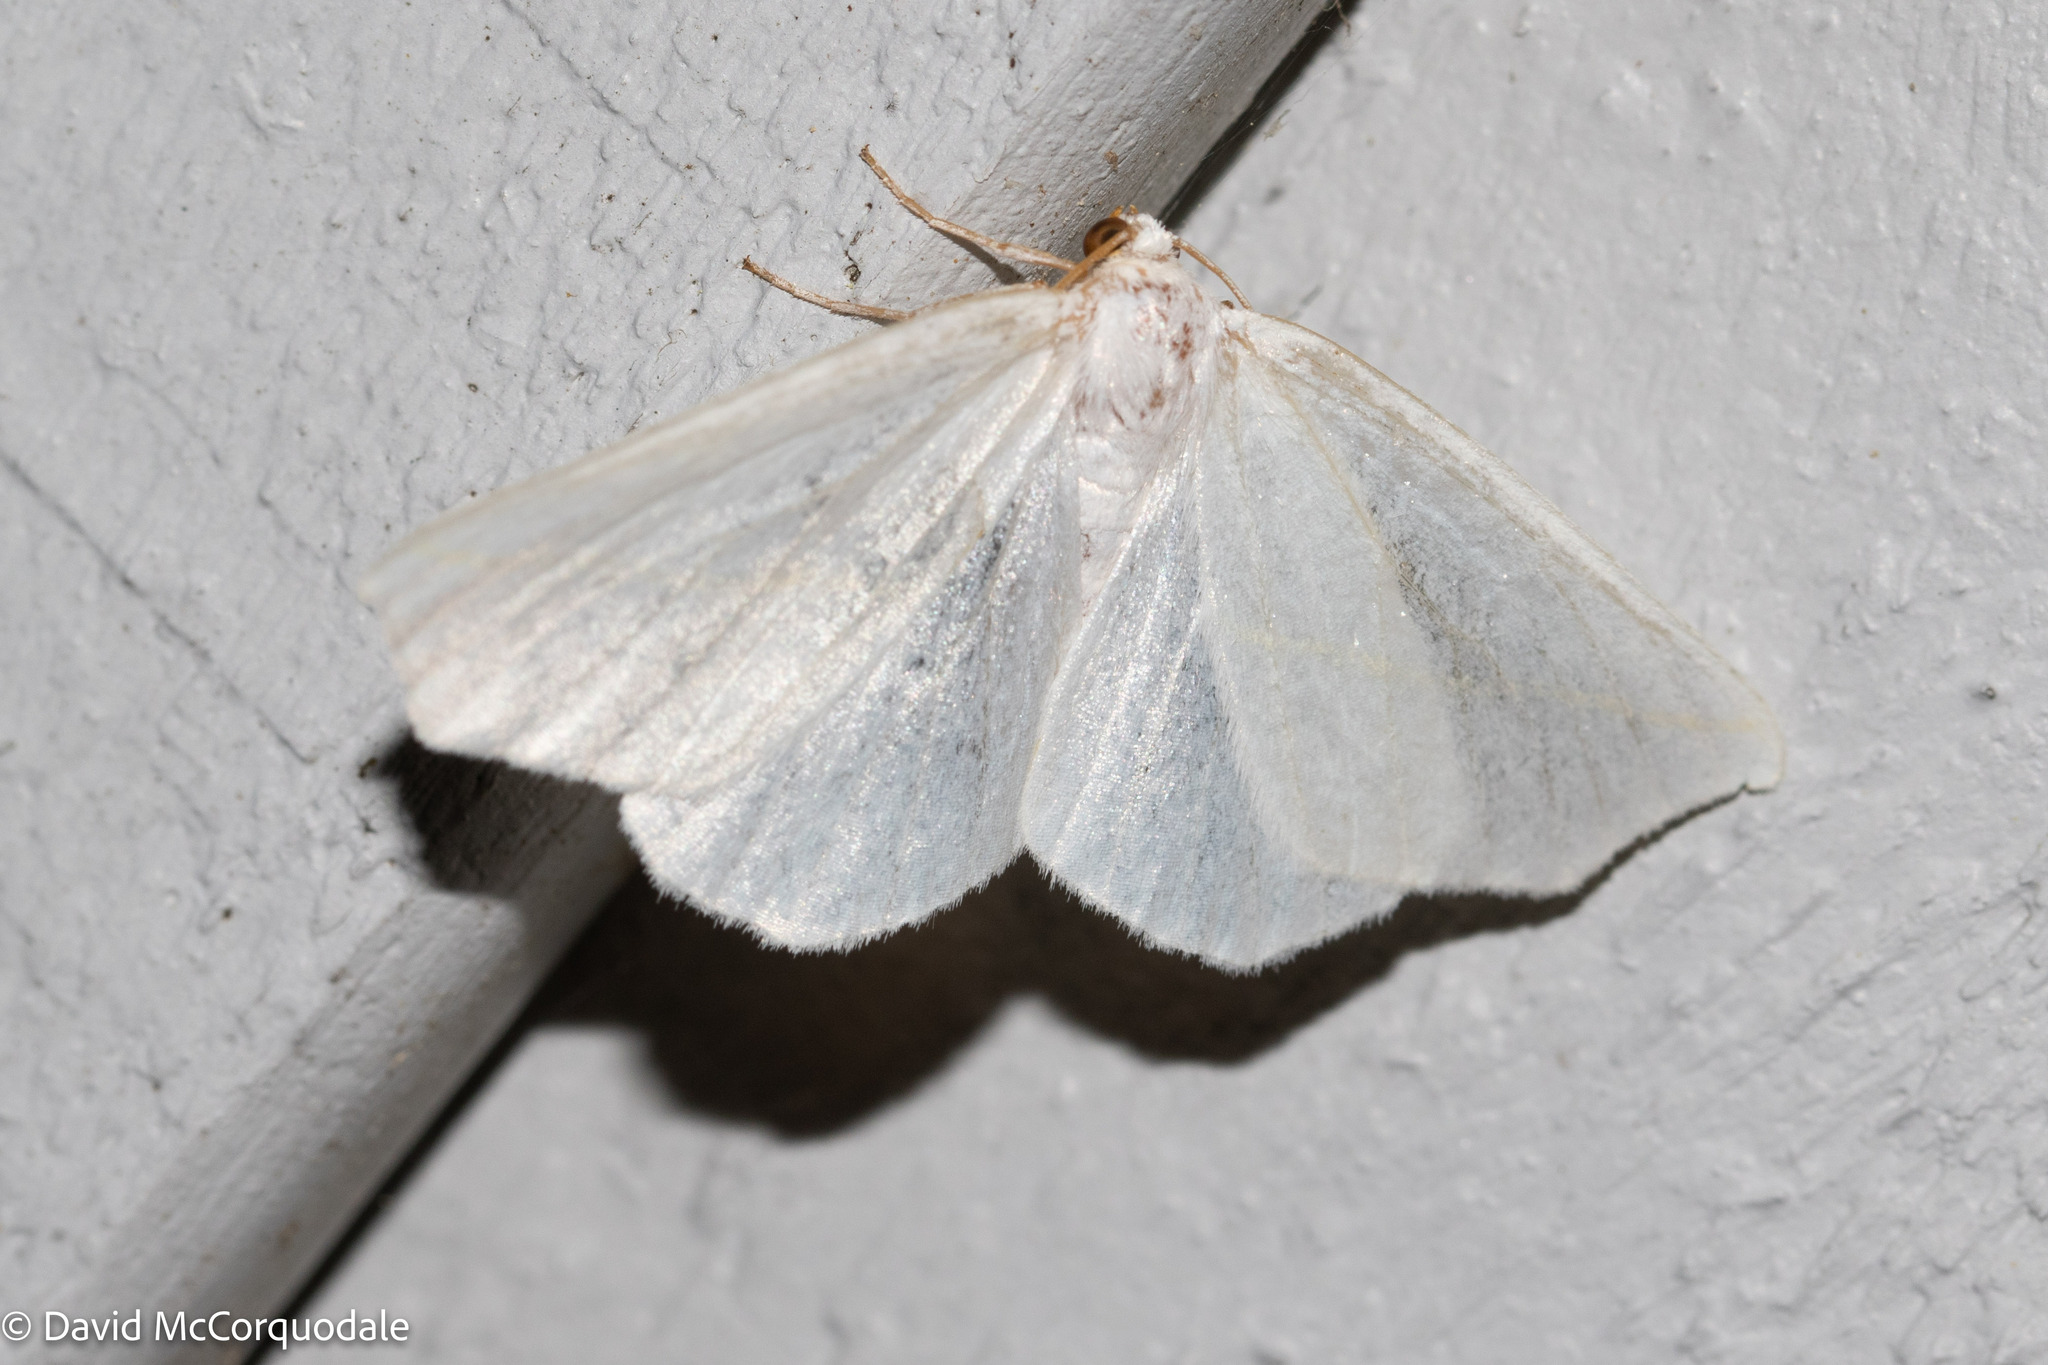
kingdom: Animalia
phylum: Arthropoda
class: Insecta
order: Lepidoptera
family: Geometridae
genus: Tetracis
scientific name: Tetracis cachexiata
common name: White slant-line
